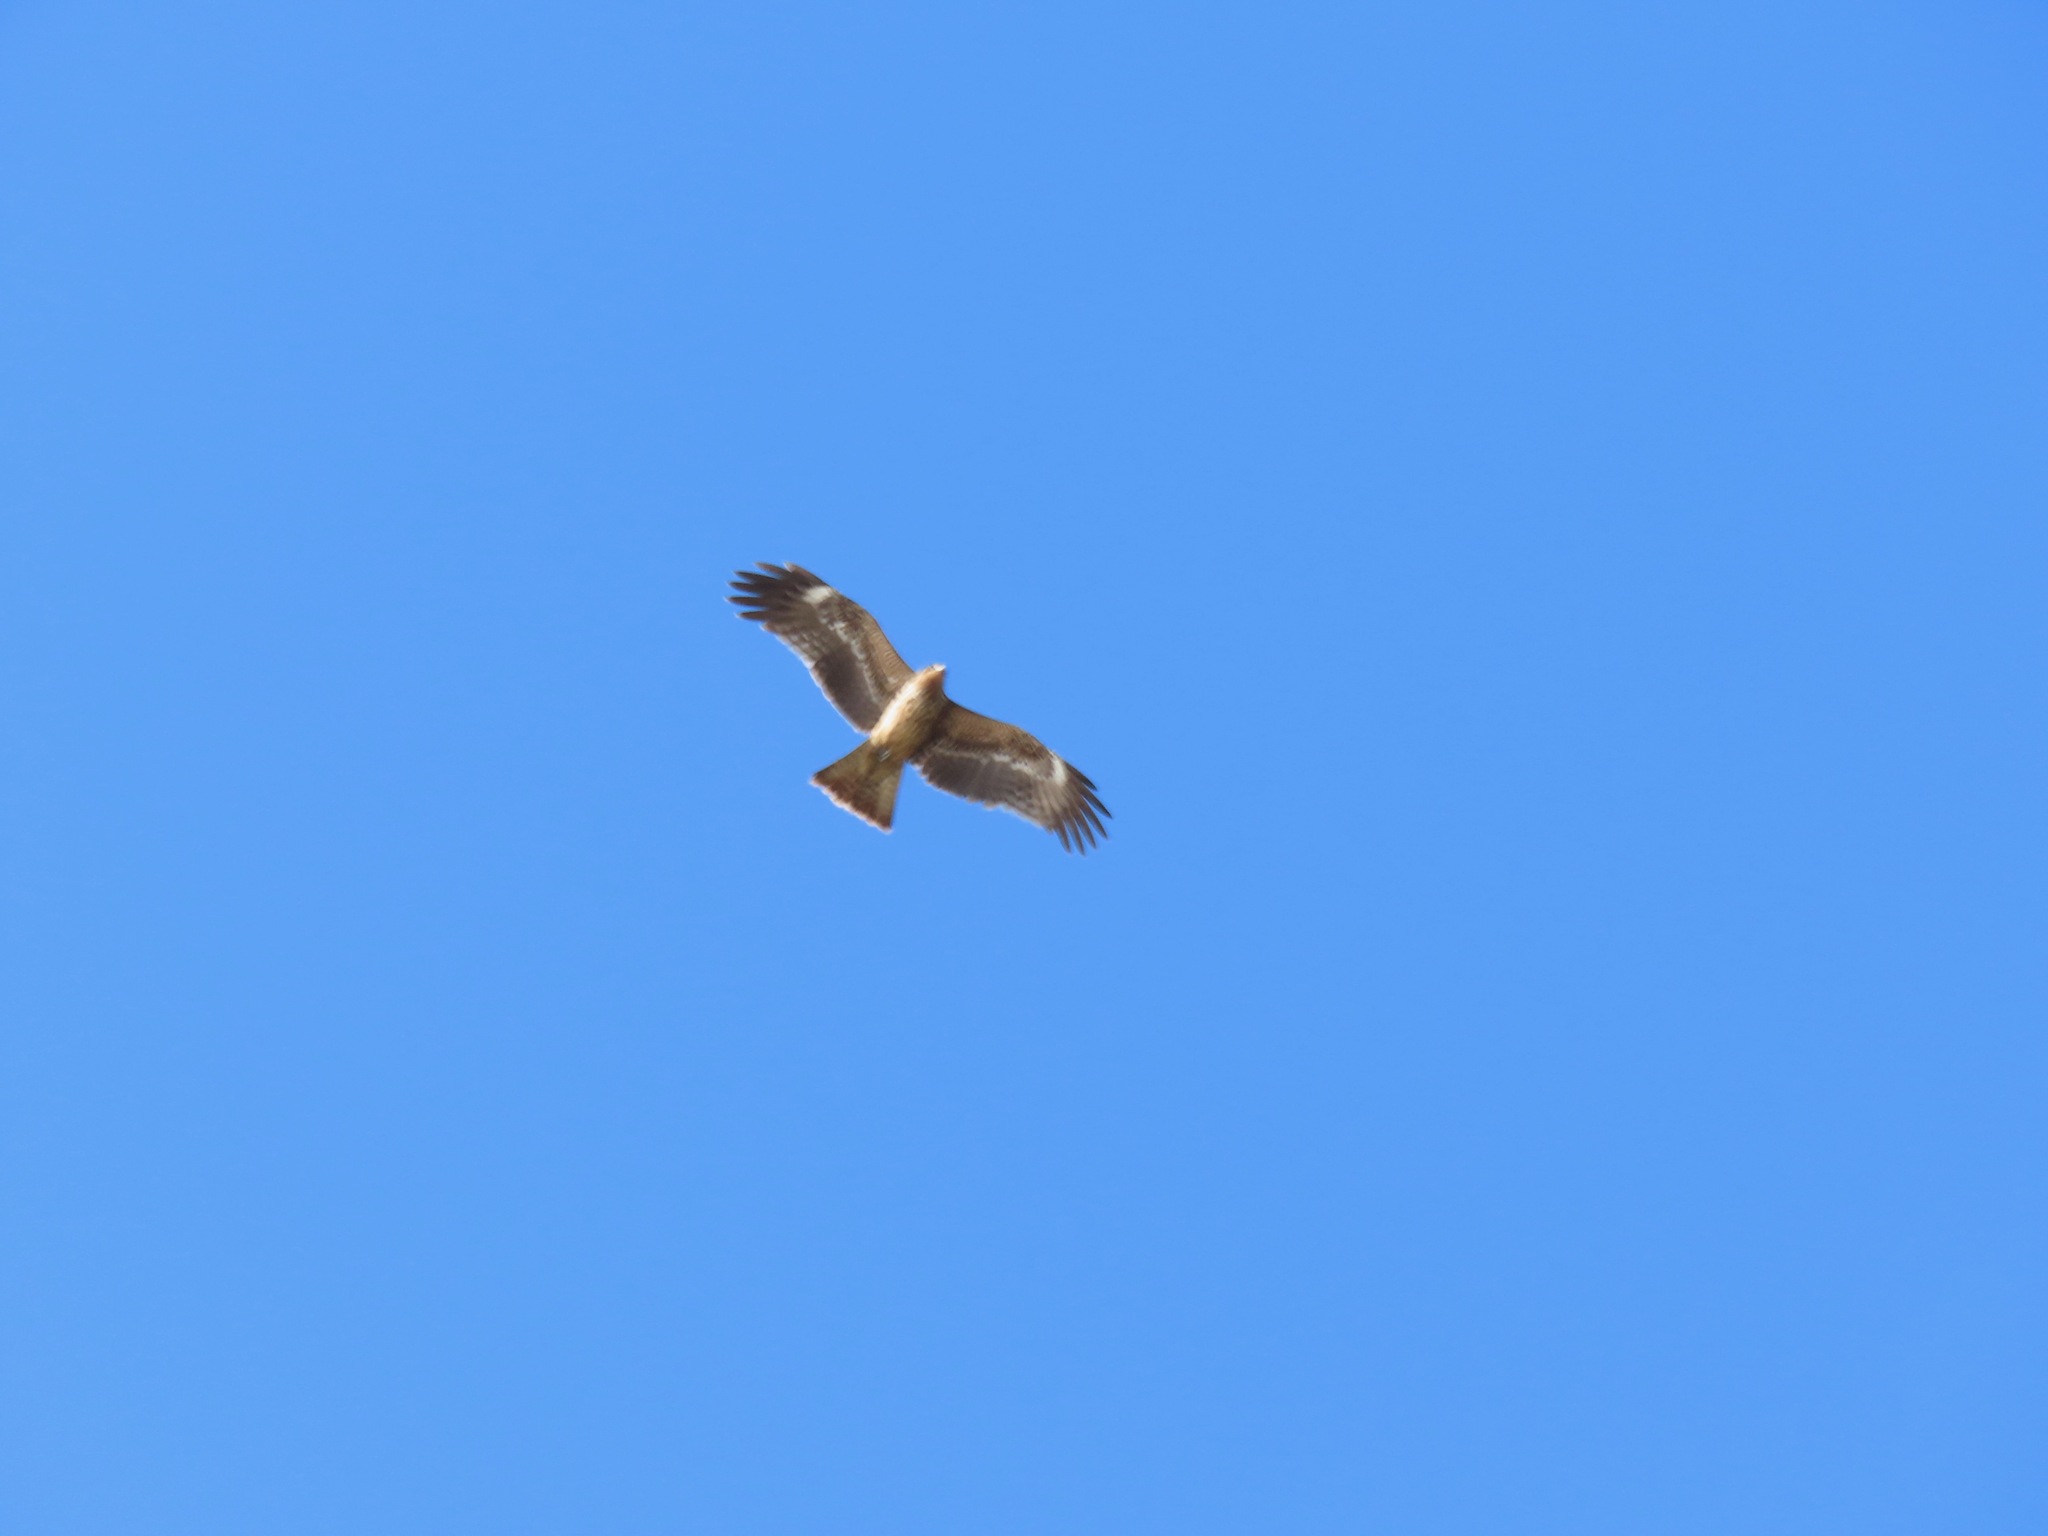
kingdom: Animalia
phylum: Chordata
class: Aves
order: Accipitriformes
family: Accipitridae
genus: Milvus
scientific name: Milvus migrans
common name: Black kite
